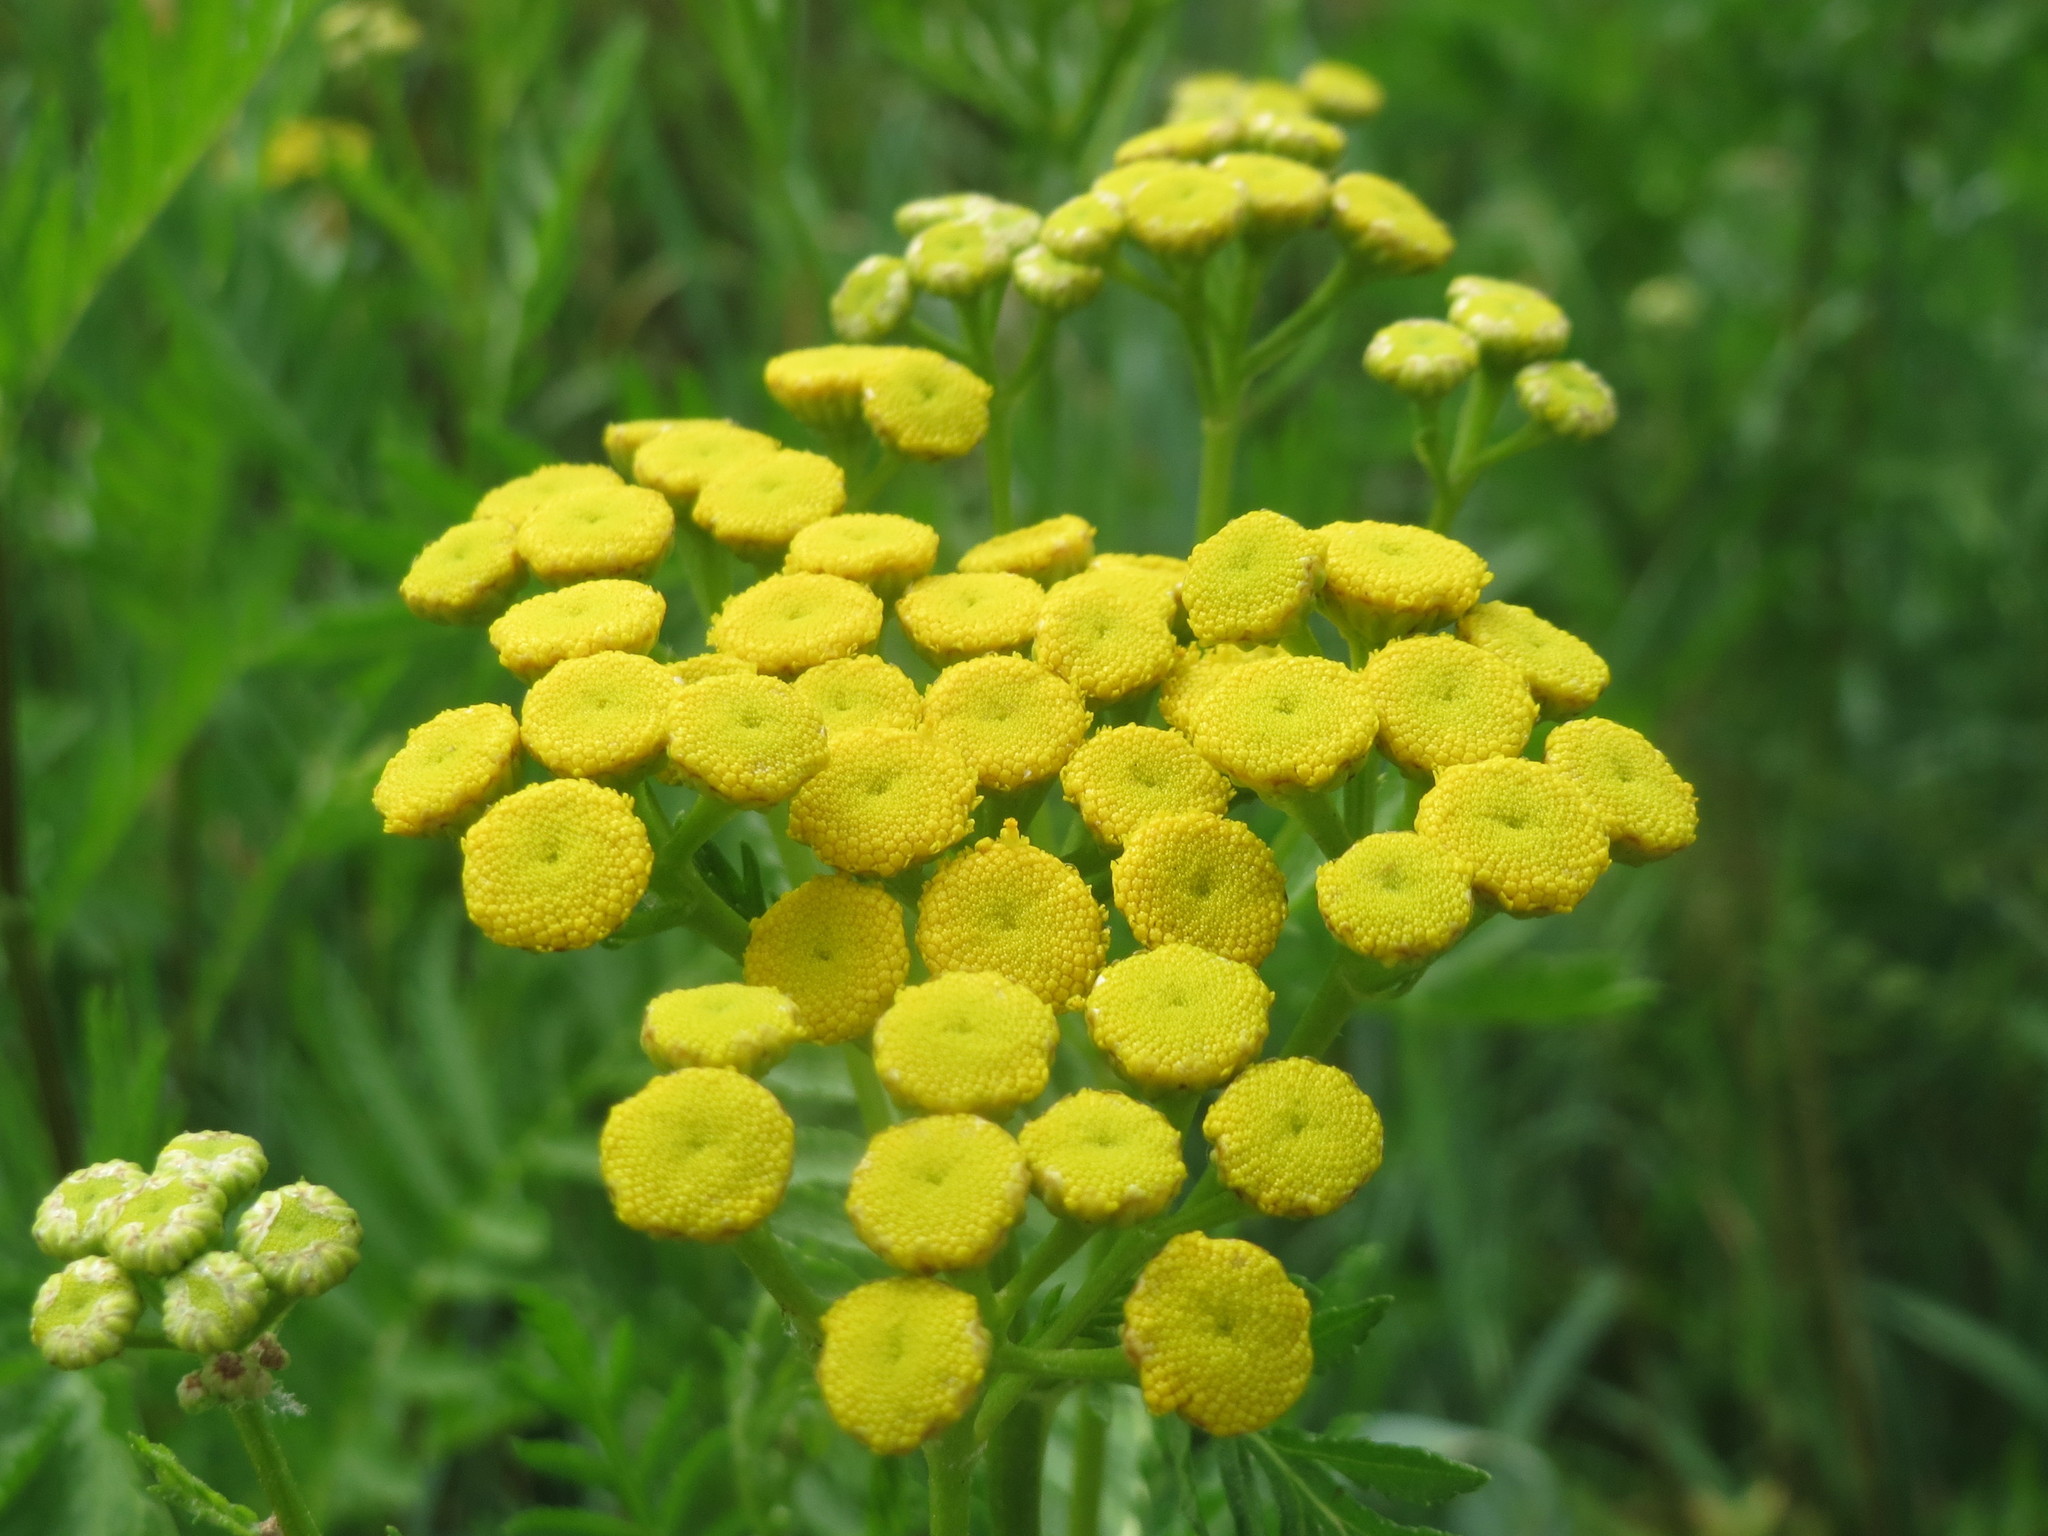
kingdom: Plantae
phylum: Tracheophyta
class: Magnoliopsida
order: Asterales
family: Asteraceae
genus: Tanacetum
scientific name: Tanacetum vulgare
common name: Common tansy
